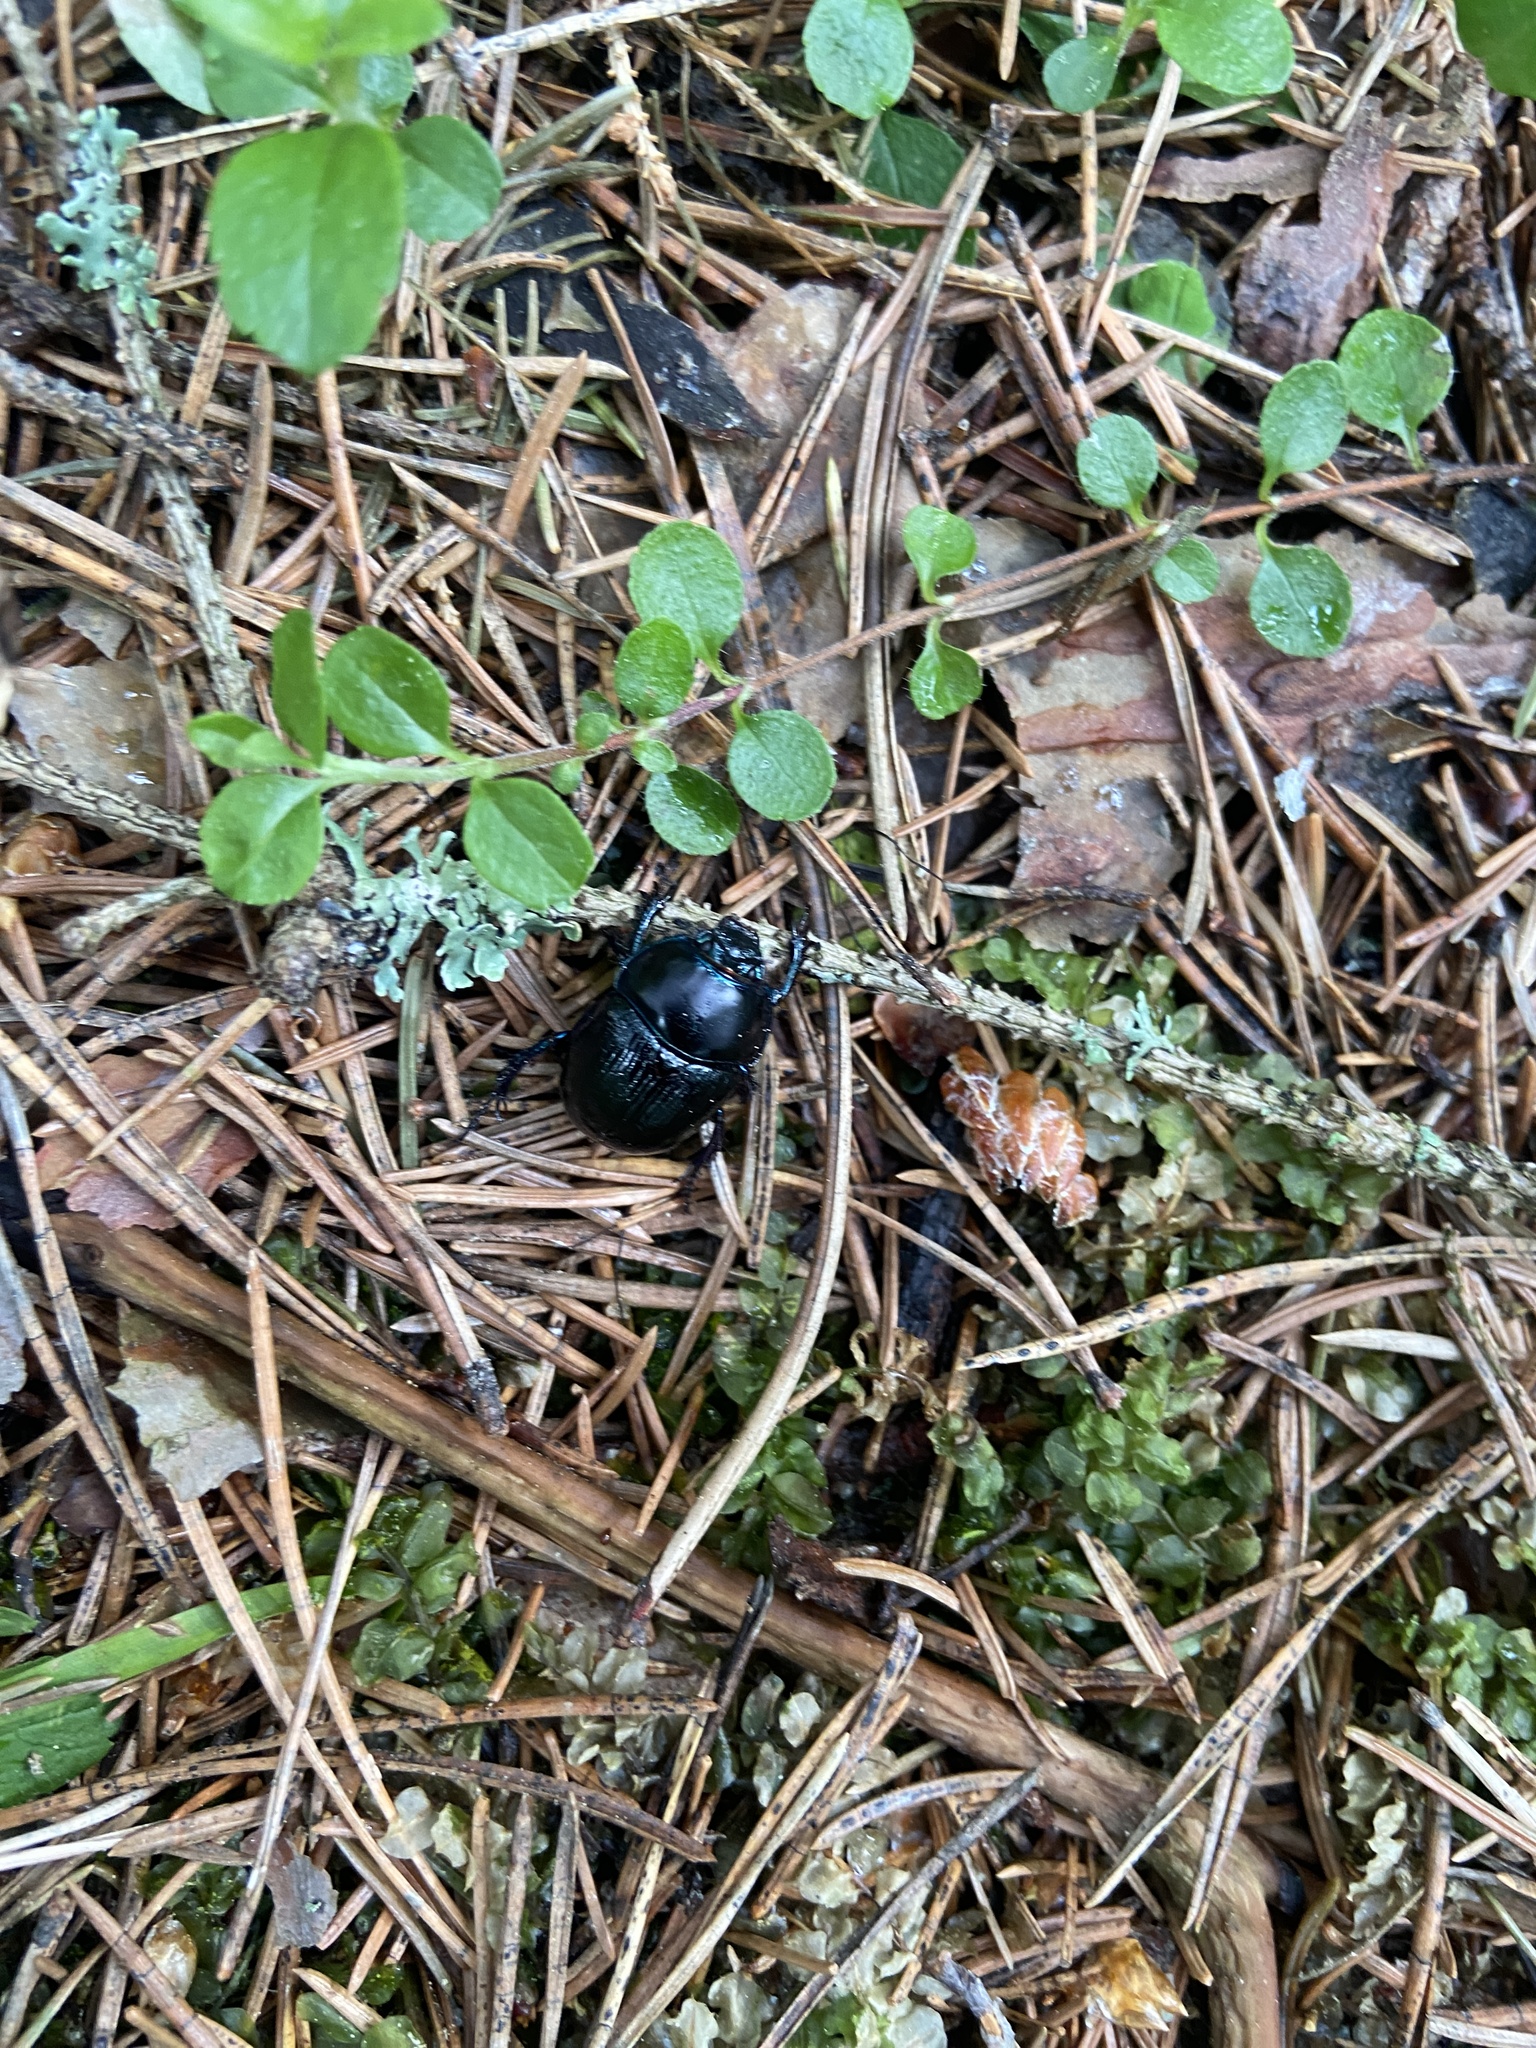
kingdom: Animalia
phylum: Arthropoda
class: Insecta
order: Coleoptera
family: Geotrupidae
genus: Anoplotrupes
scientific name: Anoplotrupes stercorosus
